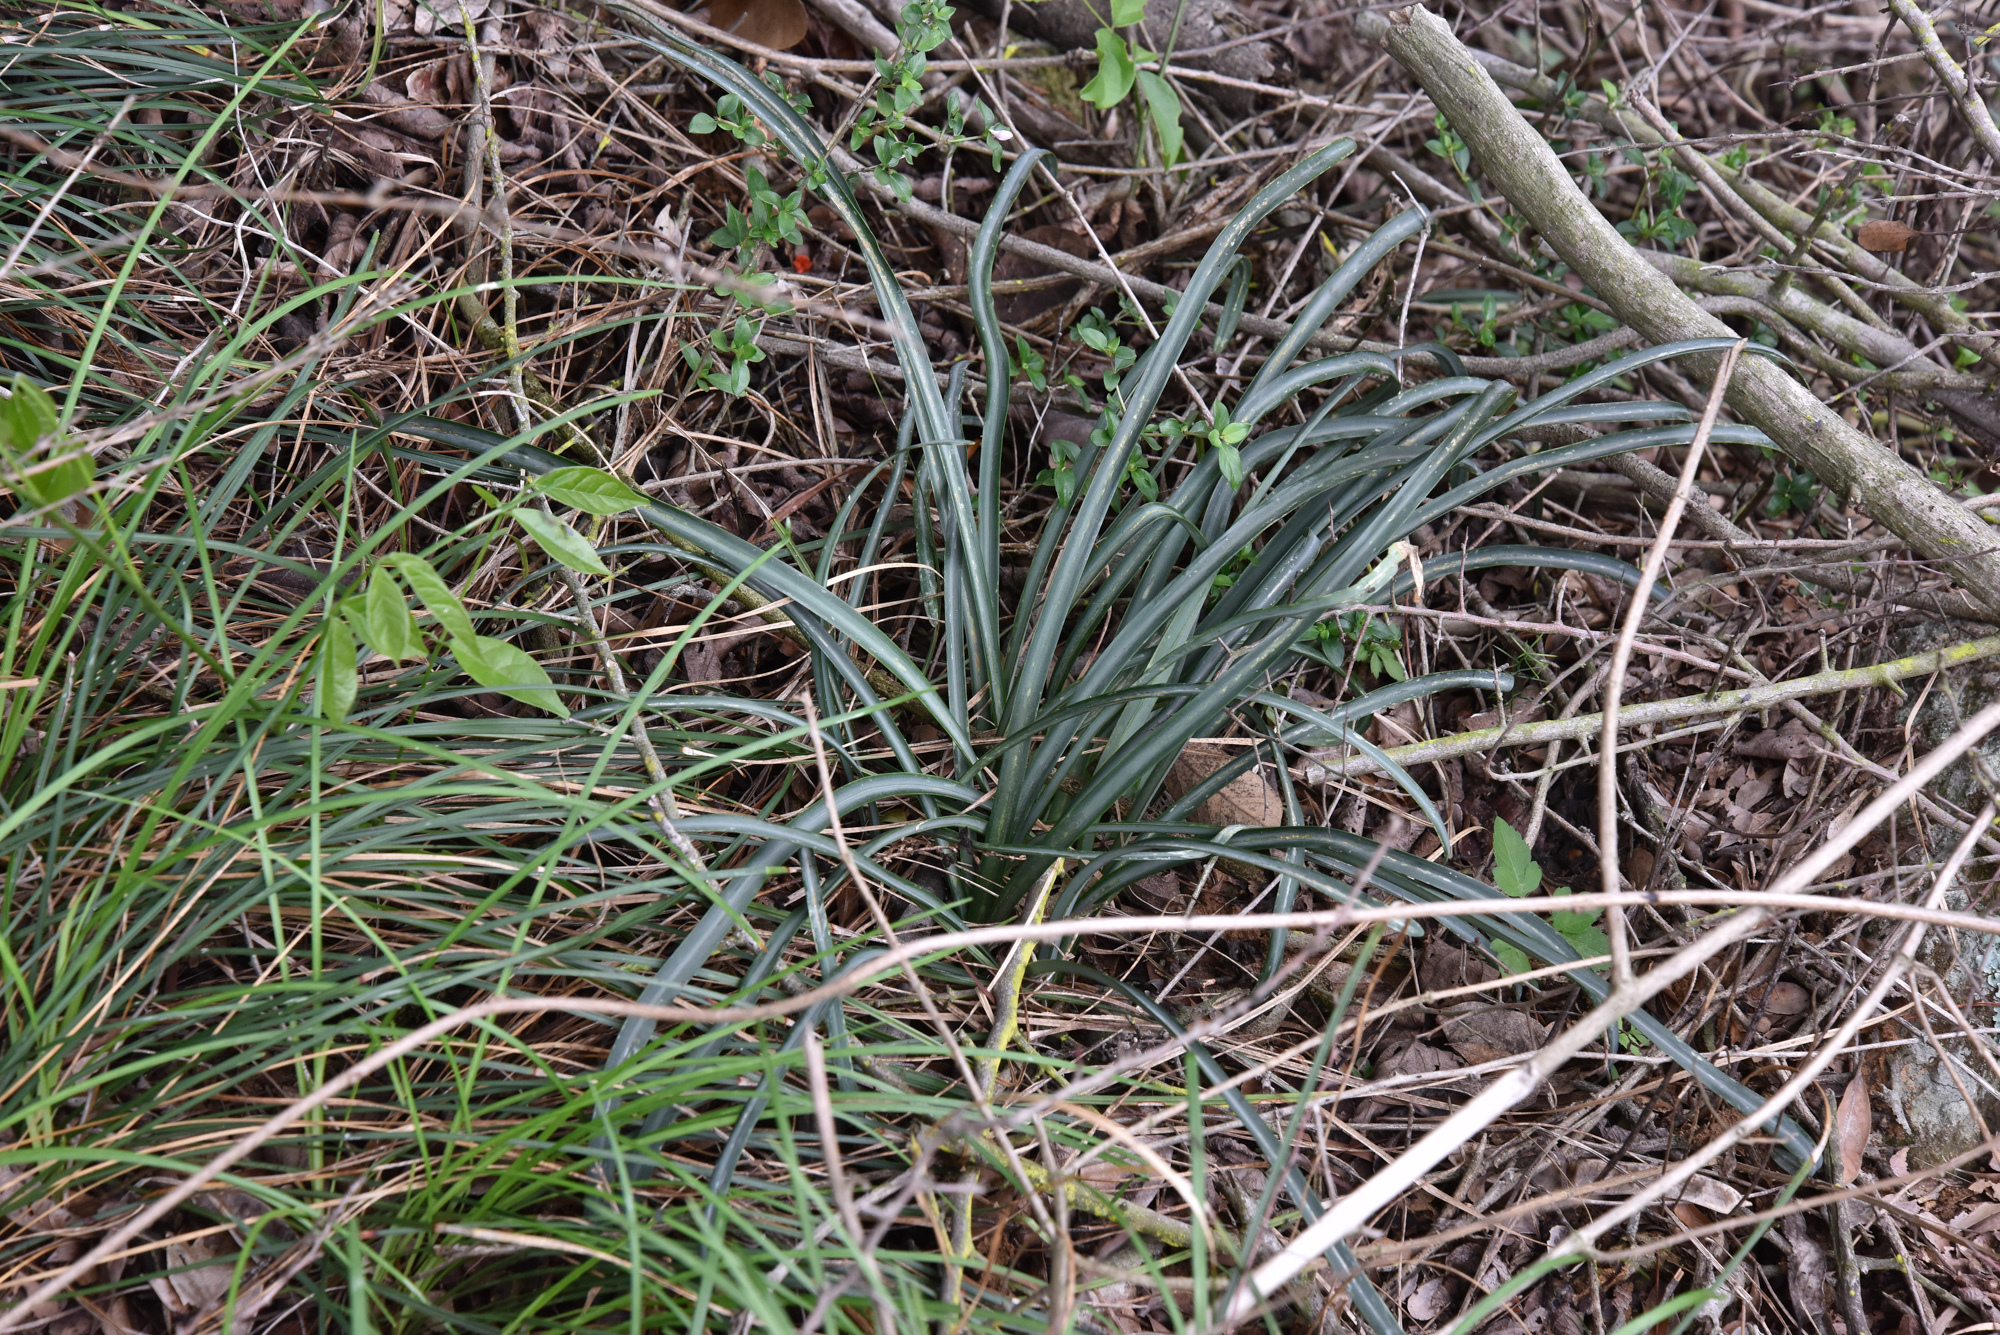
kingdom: Plantae
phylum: Tracheophyta
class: Liliopsida
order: Asparagales
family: Amaryllidaceae
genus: Lycoris
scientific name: Lycoris radiata
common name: Red spider lily
